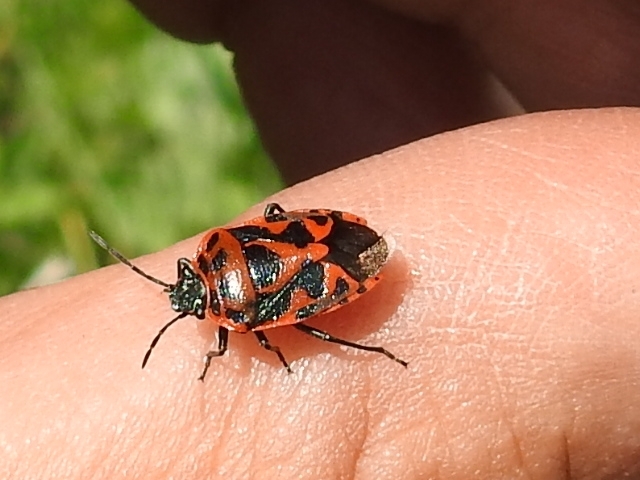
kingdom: Animalia
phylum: Arthropoda
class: Insecta
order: Hemiptera
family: Pentatomidae
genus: Eurydema
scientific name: Eurydema ornata
